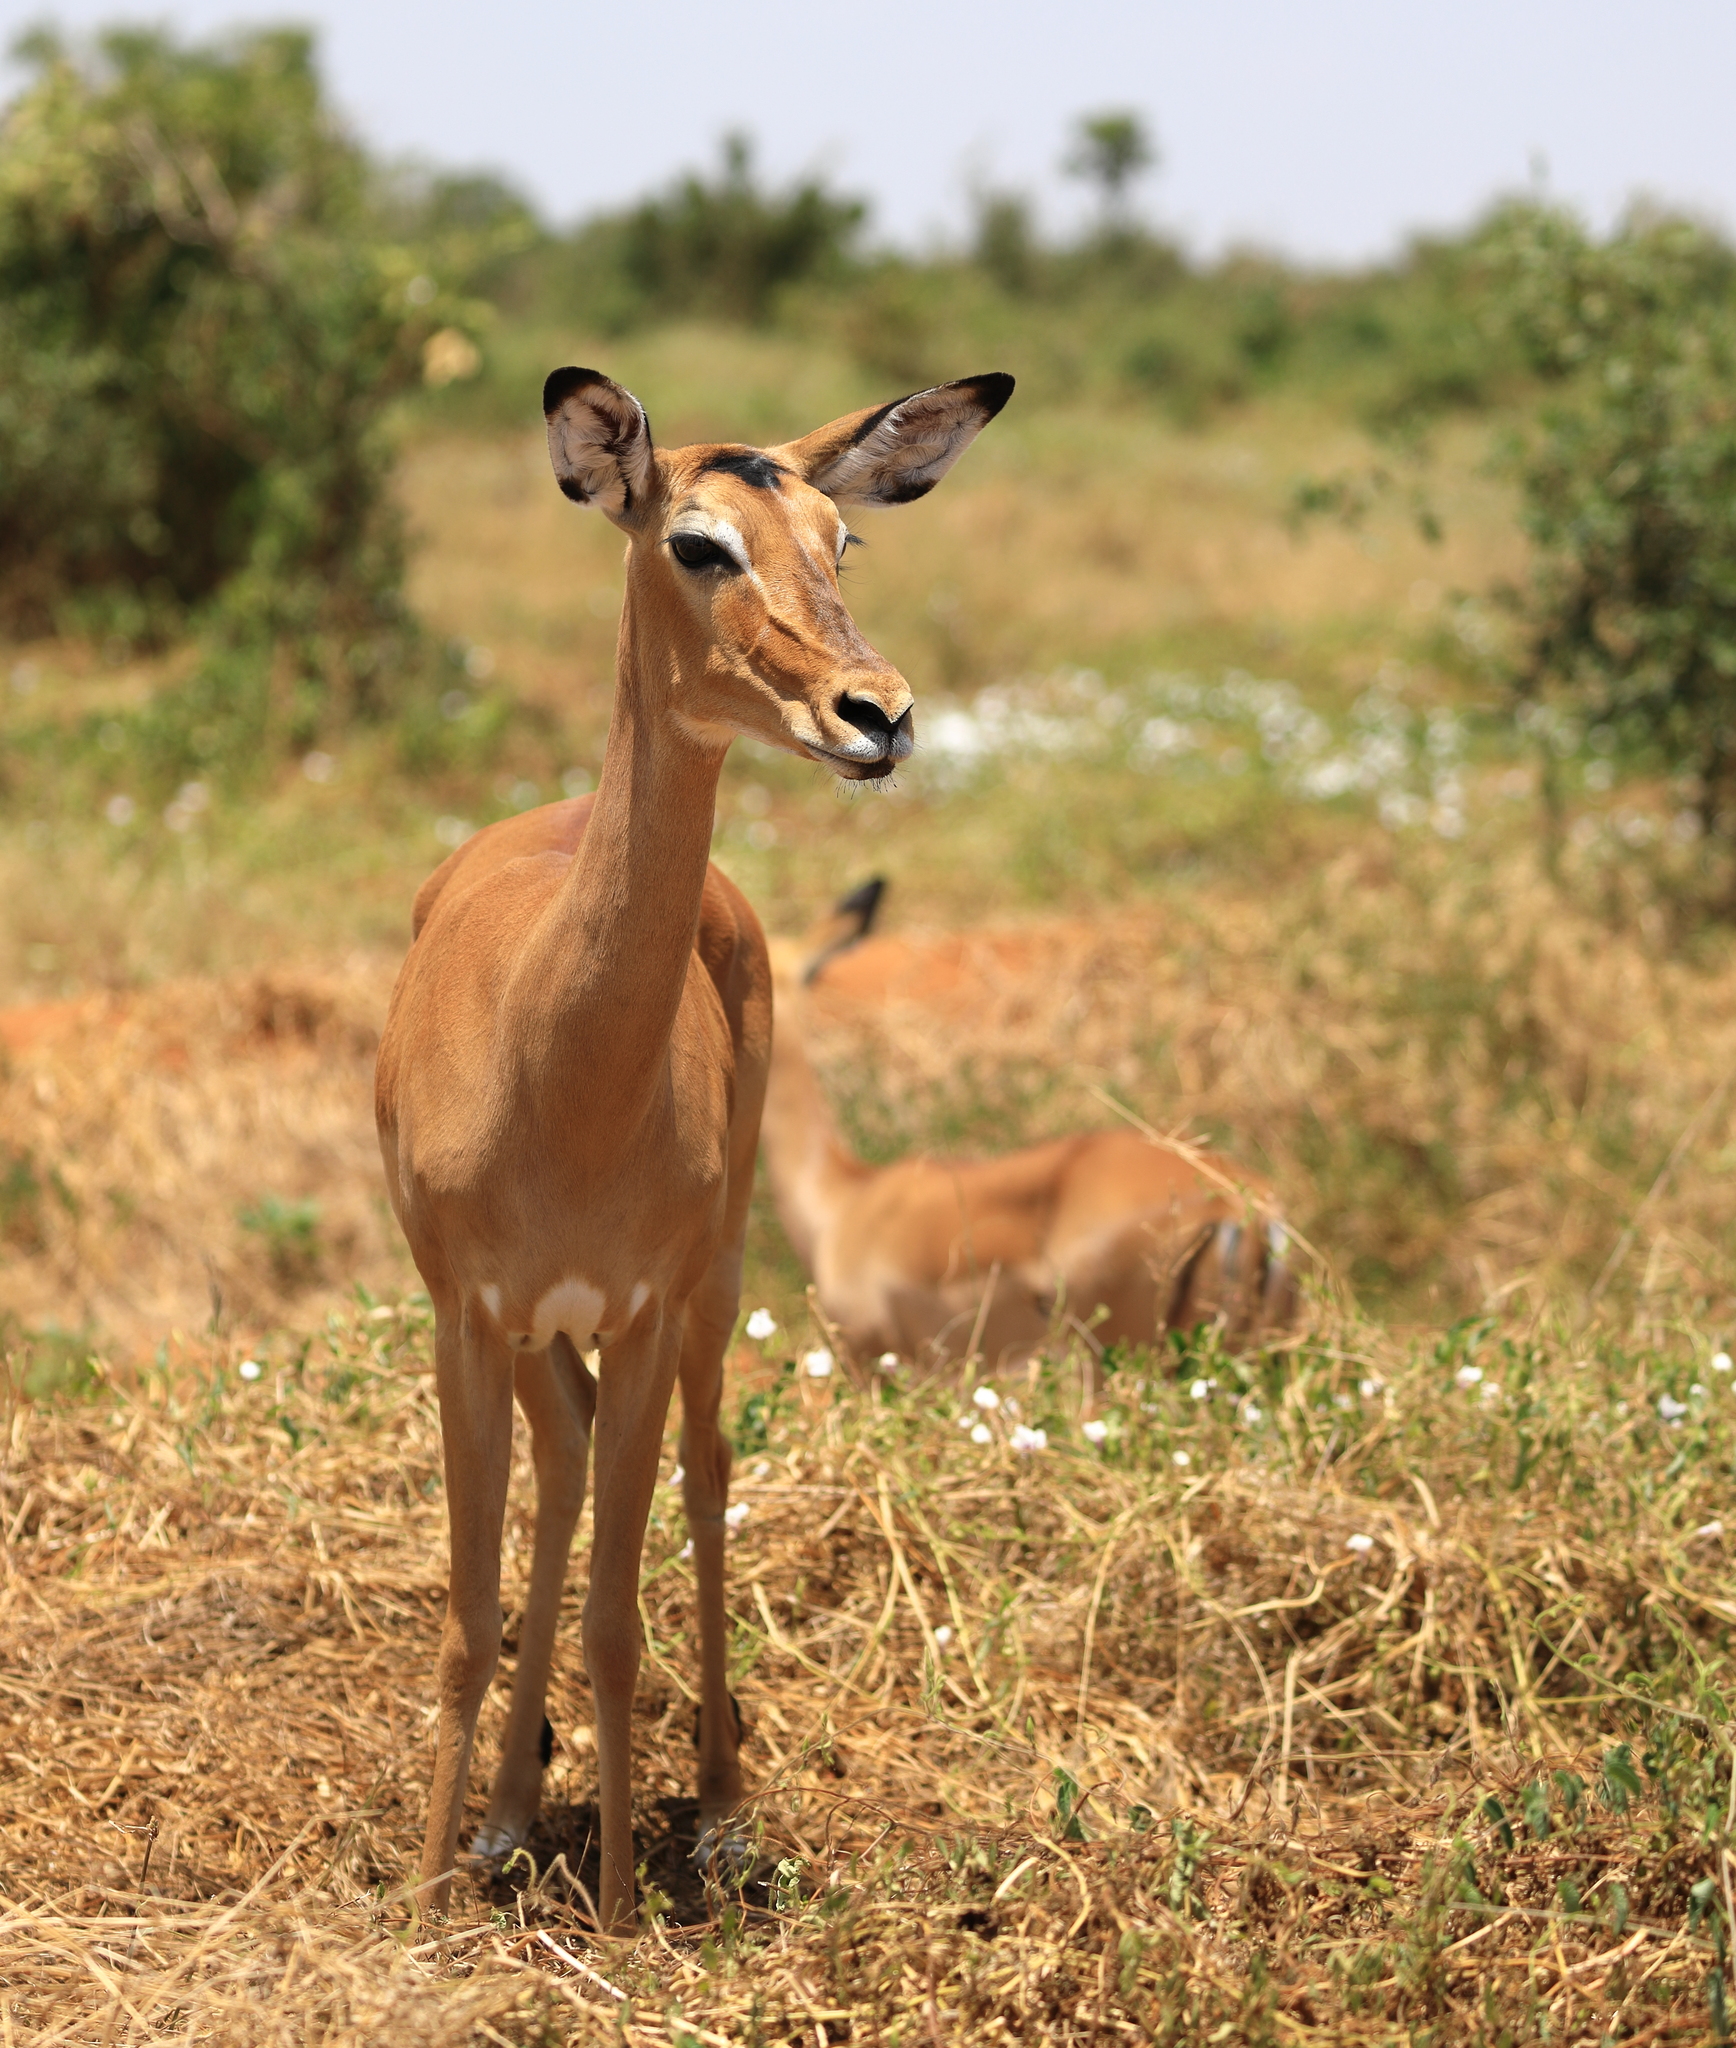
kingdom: Animalia
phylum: Chordata
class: Mammalia
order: Artiodactyla
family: Bovidae
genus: Aepyceros
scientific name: Aepyceros melampus
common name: Impala
